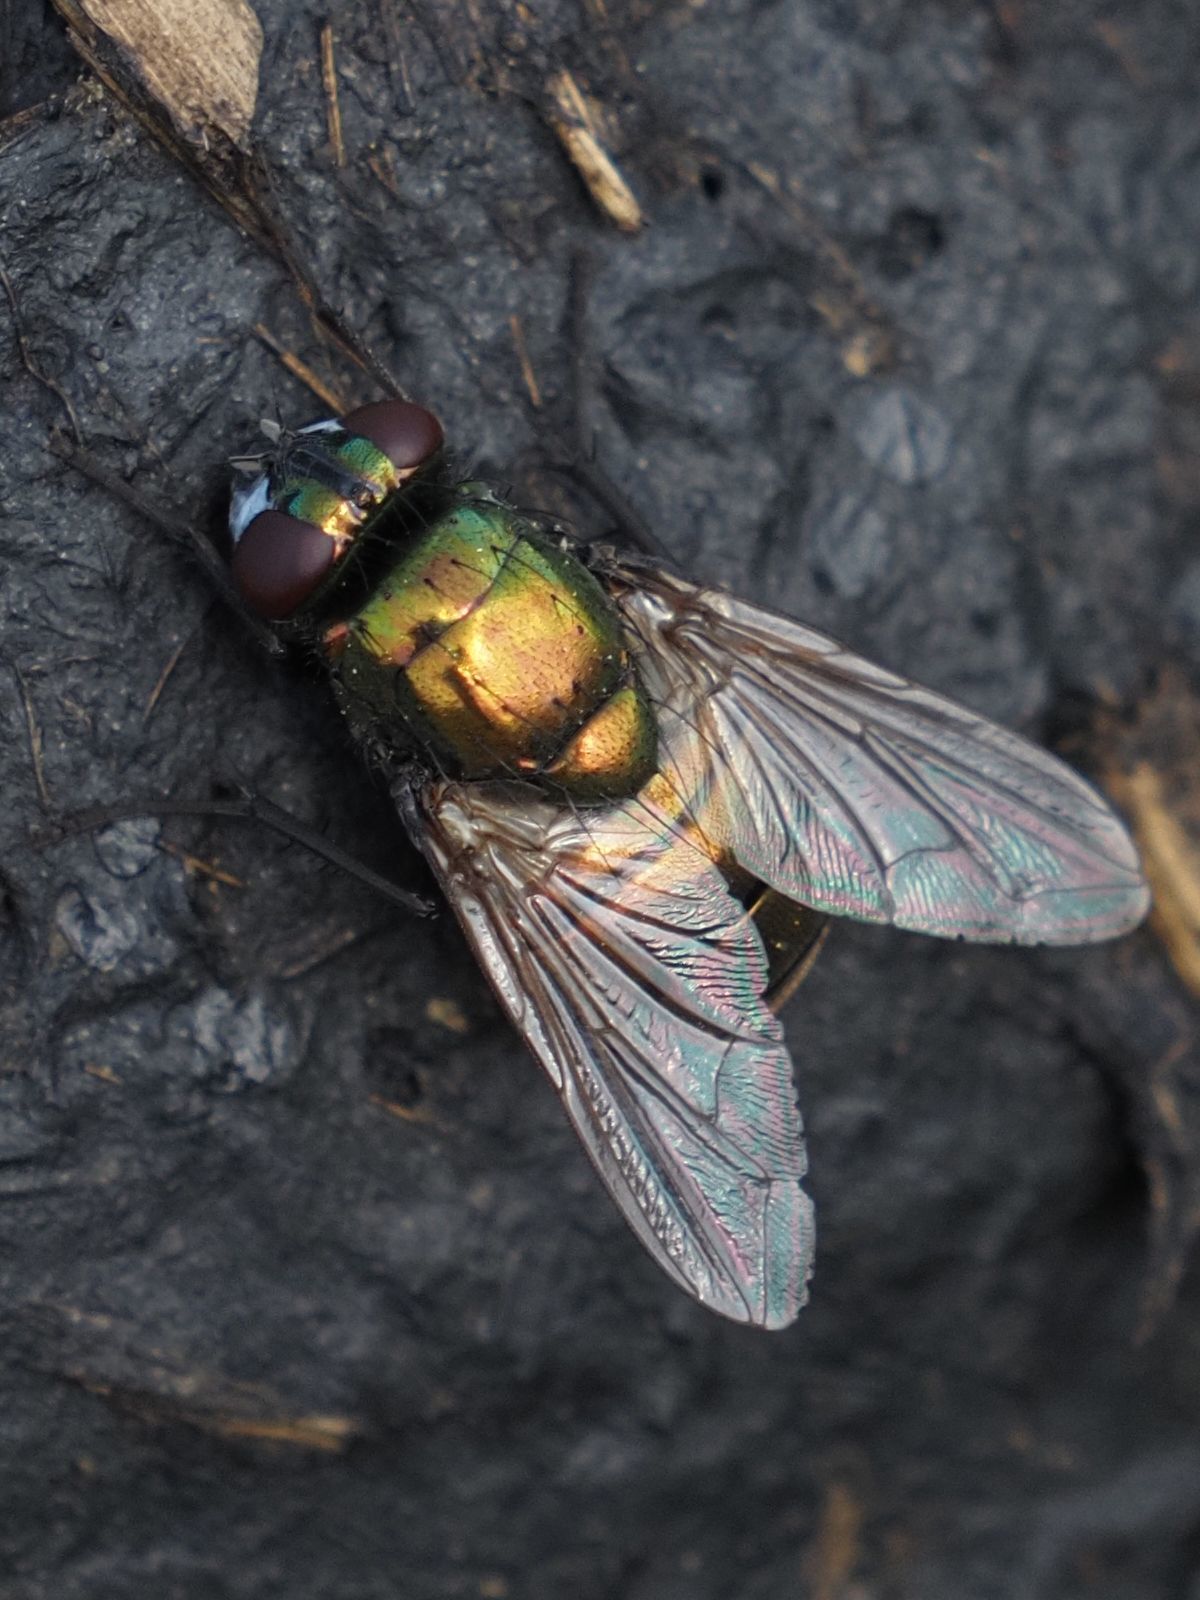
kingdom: Animalia
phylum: Arthropoda
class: Insecta
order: Diptera
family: Muscidae
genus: Neomyia
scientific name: Neomyia cornicina
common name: House fly
